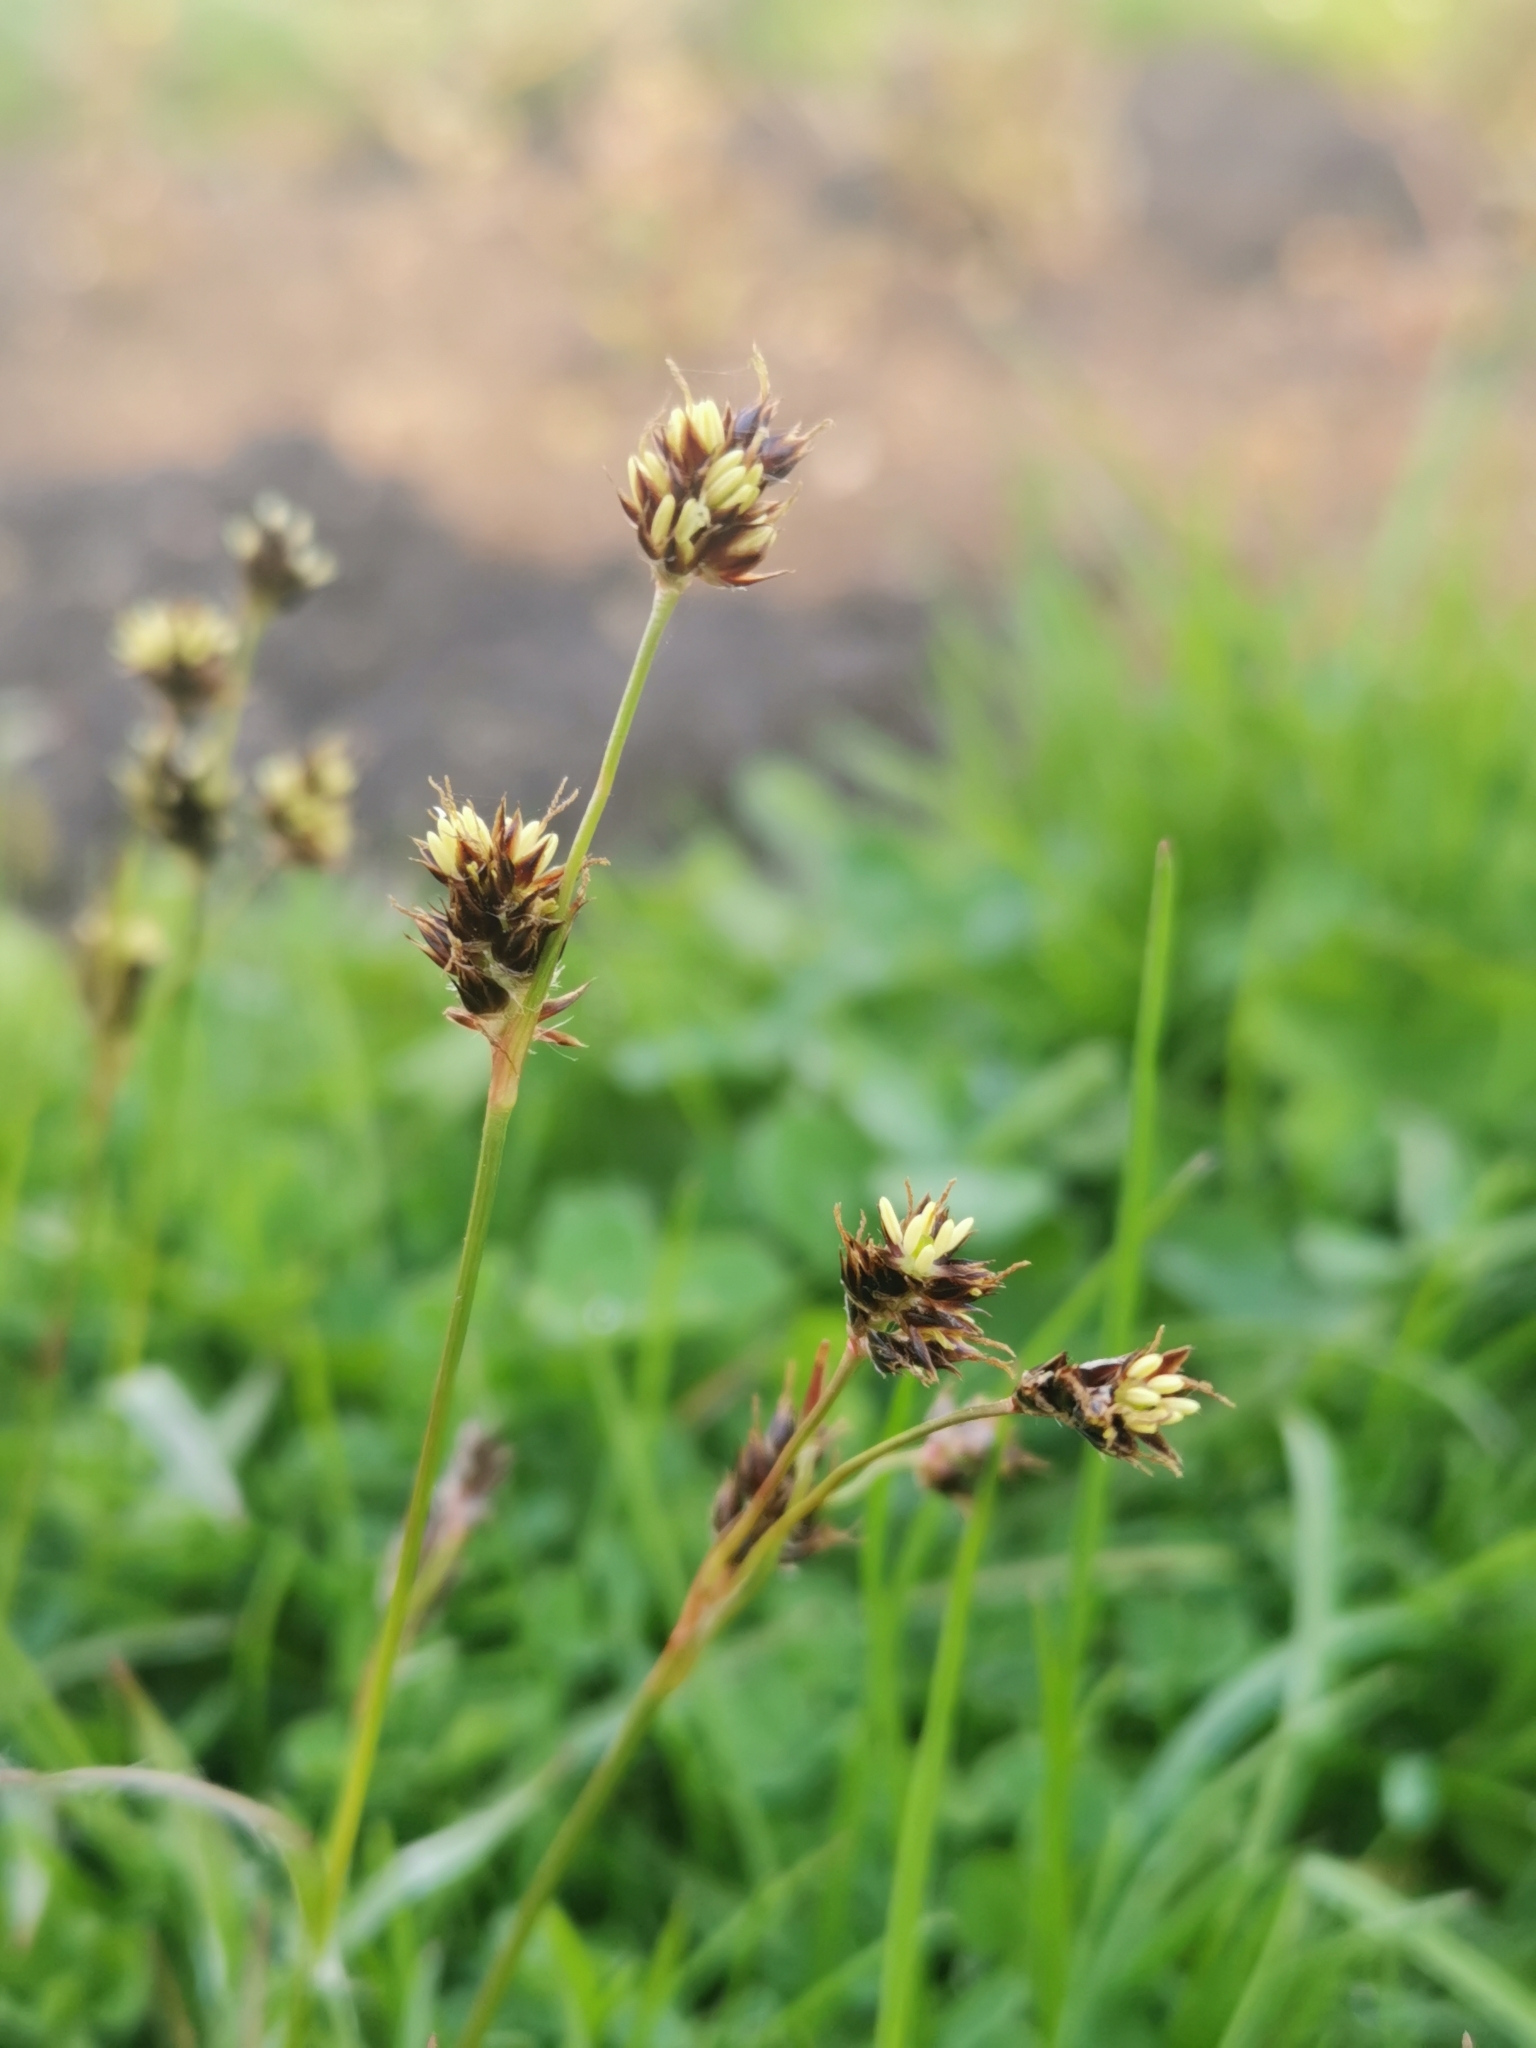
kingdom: Plantae
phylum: Tracheophyta
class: Liliopsida
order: Poales
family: Juncaceae
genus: Luzula
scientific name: Luzula campestris
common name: Field wood-rush
